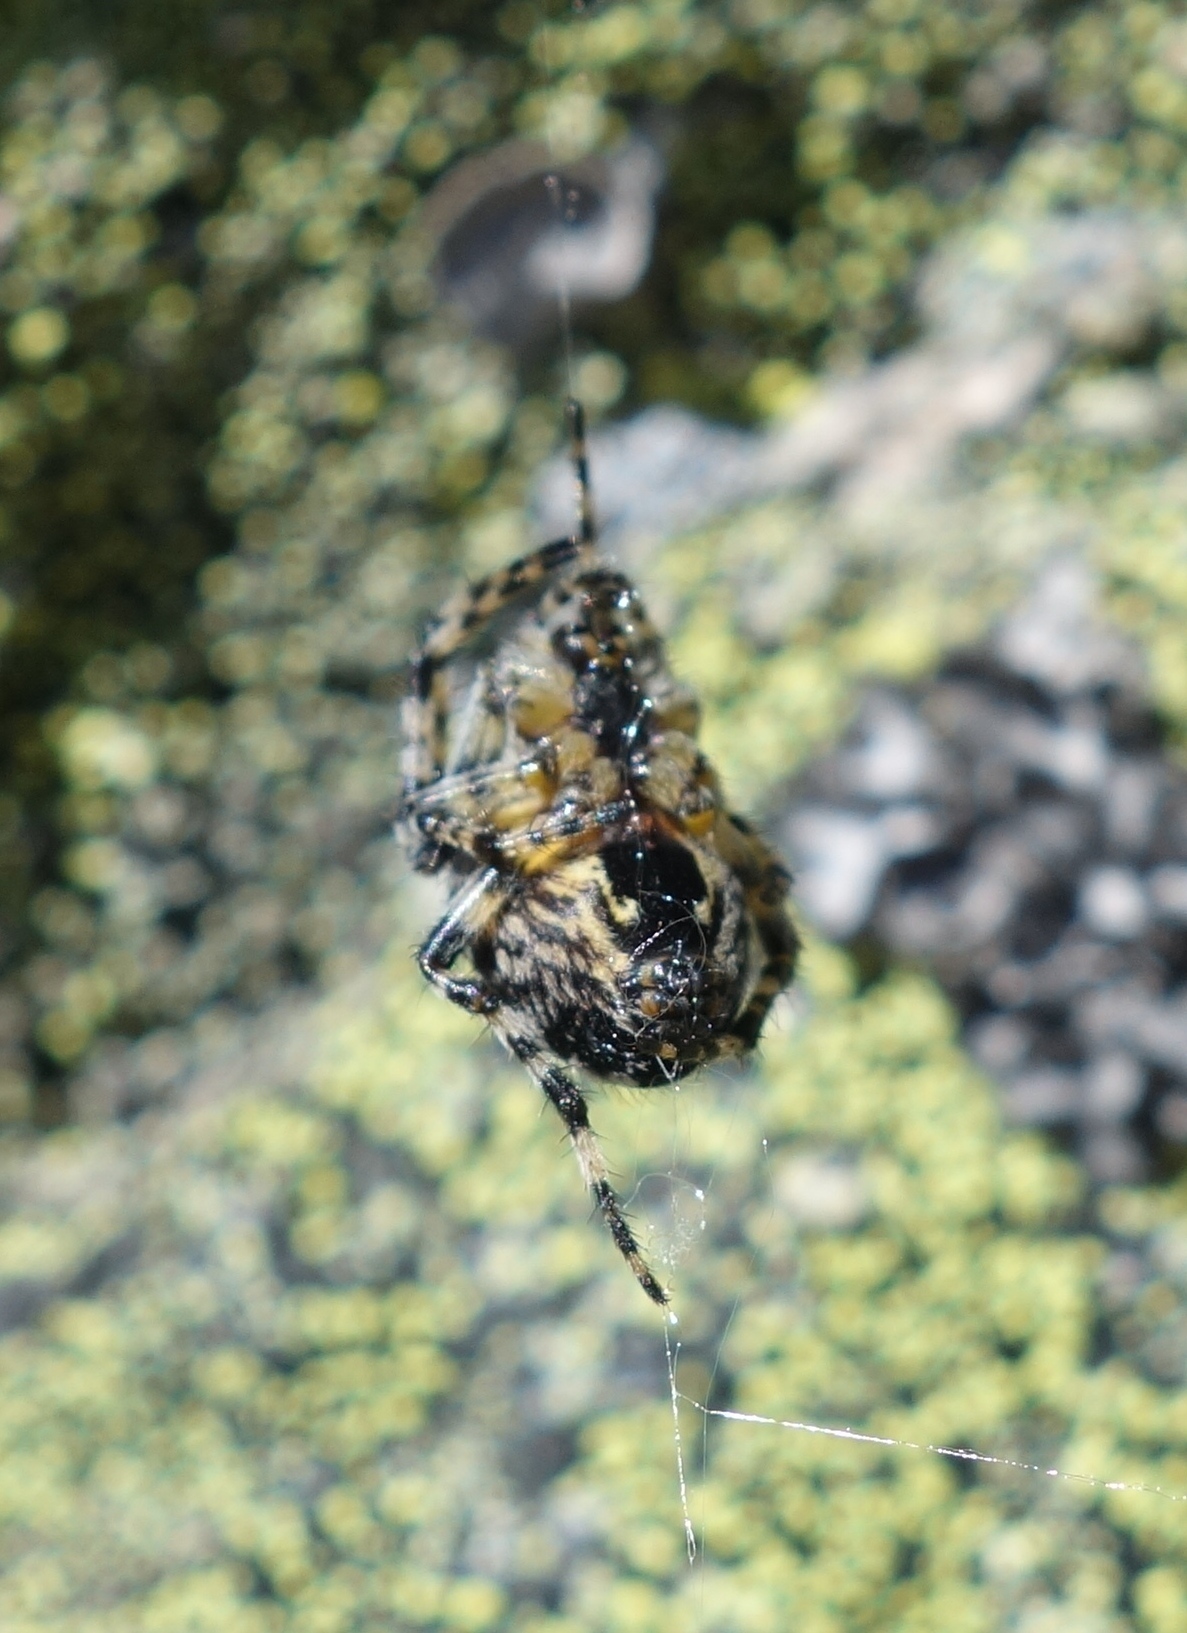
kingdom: Animalia
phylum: Arthropoda
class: Arachnida
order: Araneae
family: Araneidae
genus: Araneus
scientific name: Araneus diadematus
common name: Cross orbweaver
